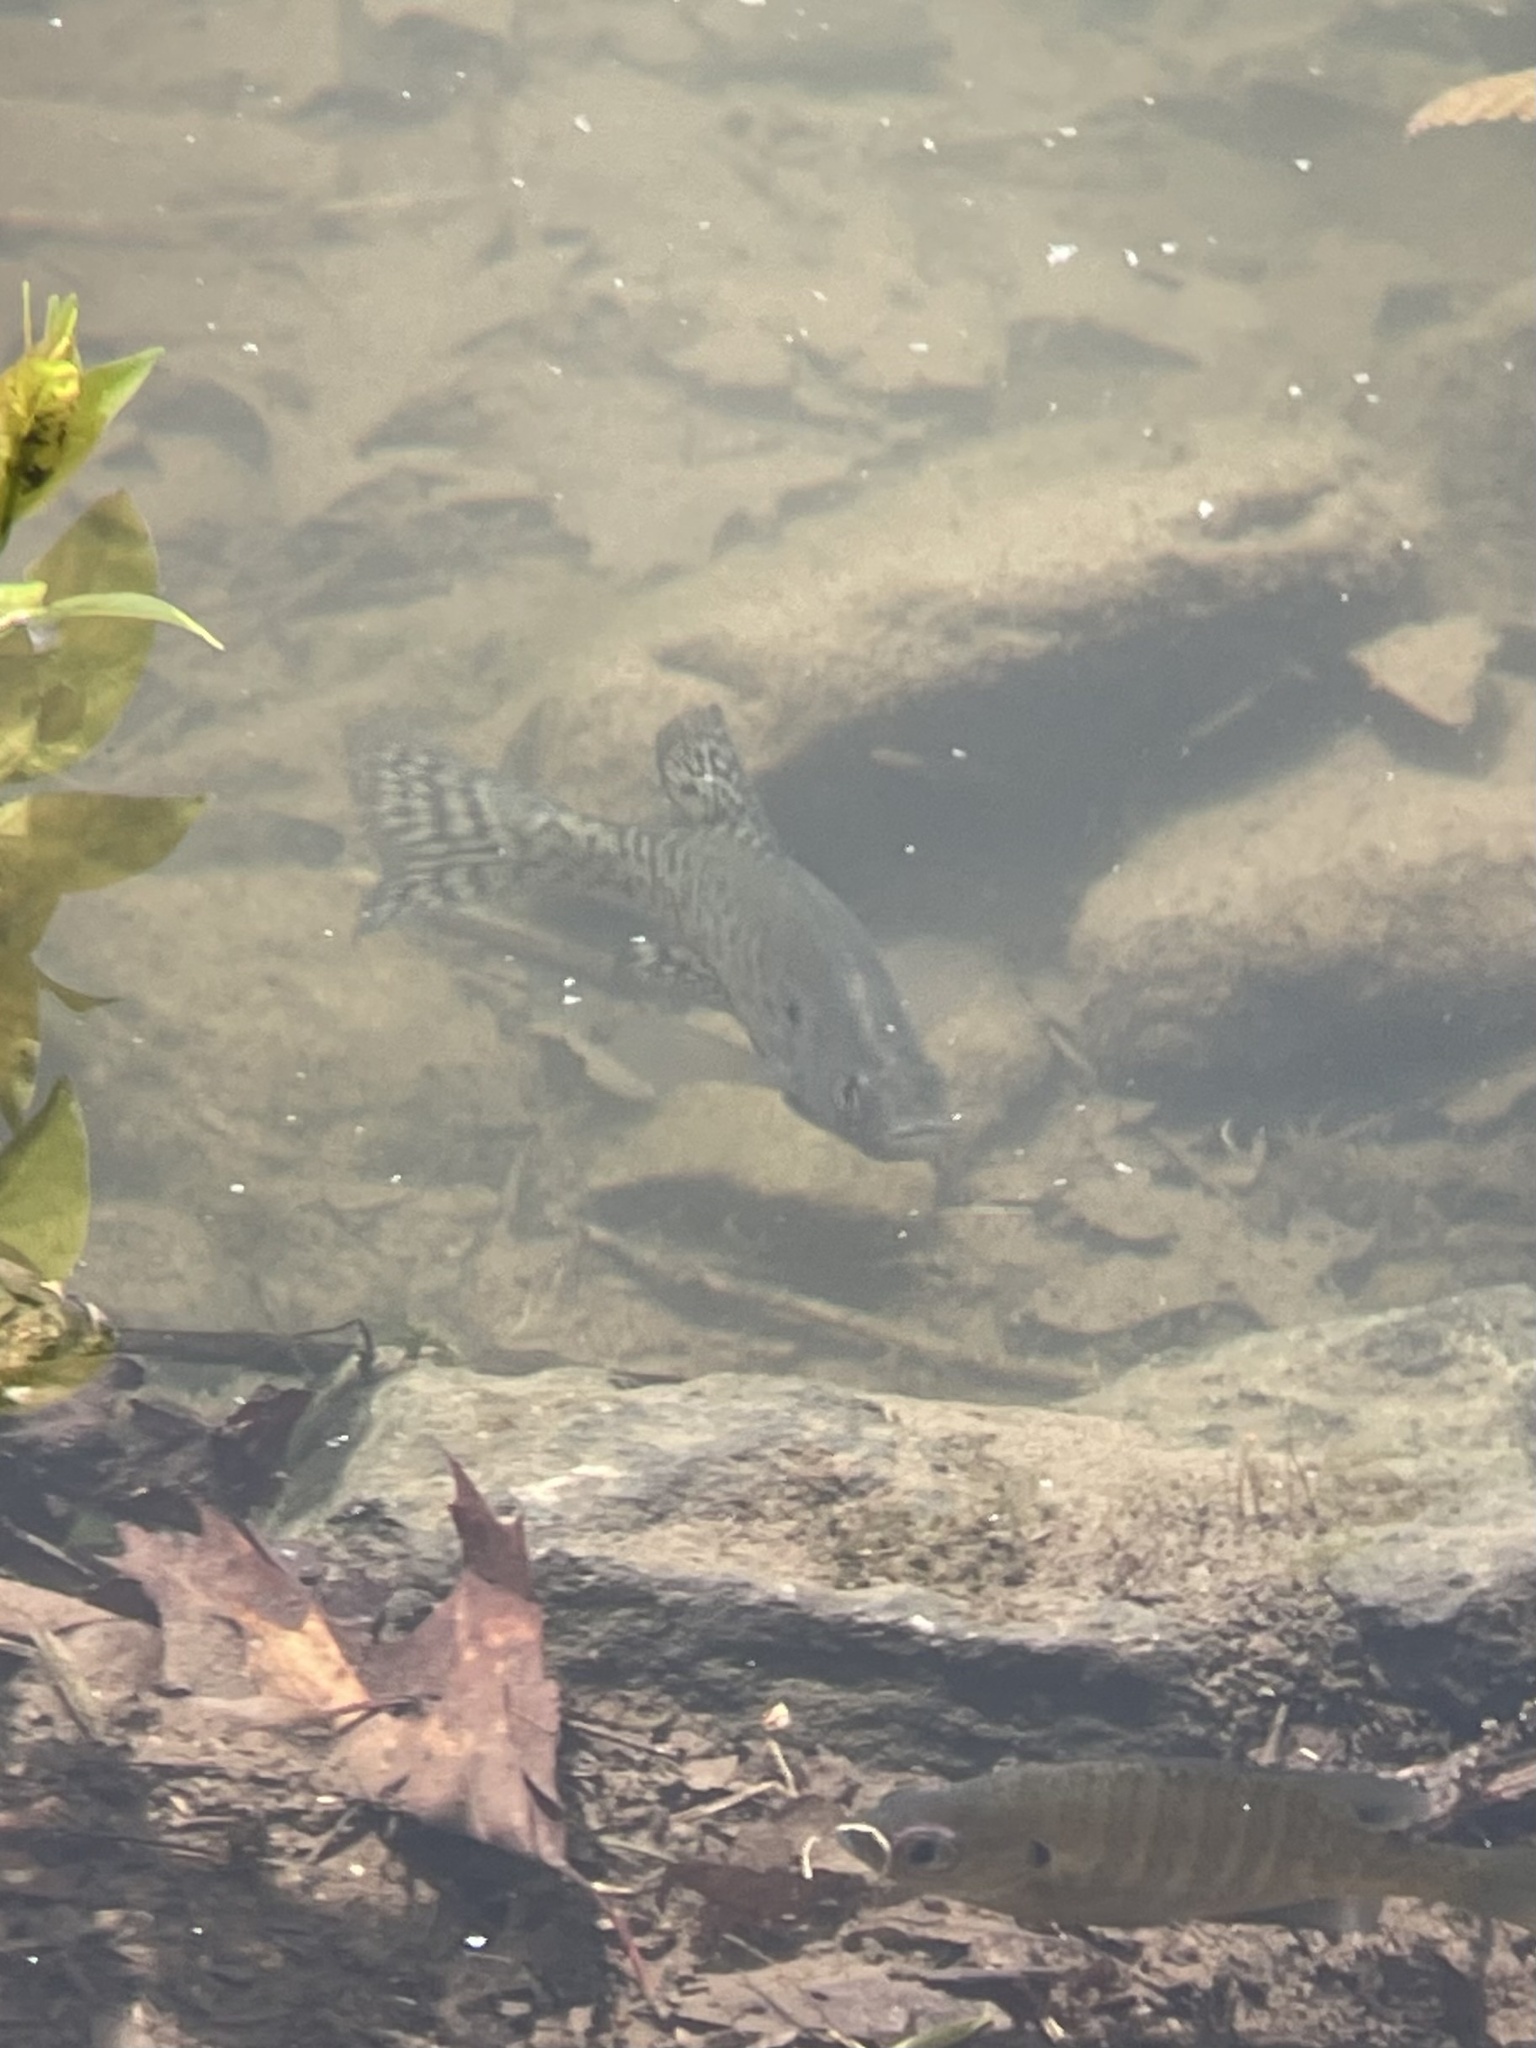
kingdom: Animalia
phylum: Chordata
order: Perciformes
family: Centrarchidae
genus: Pomoxis
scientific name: Pomoxis annularis
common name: White crappie
